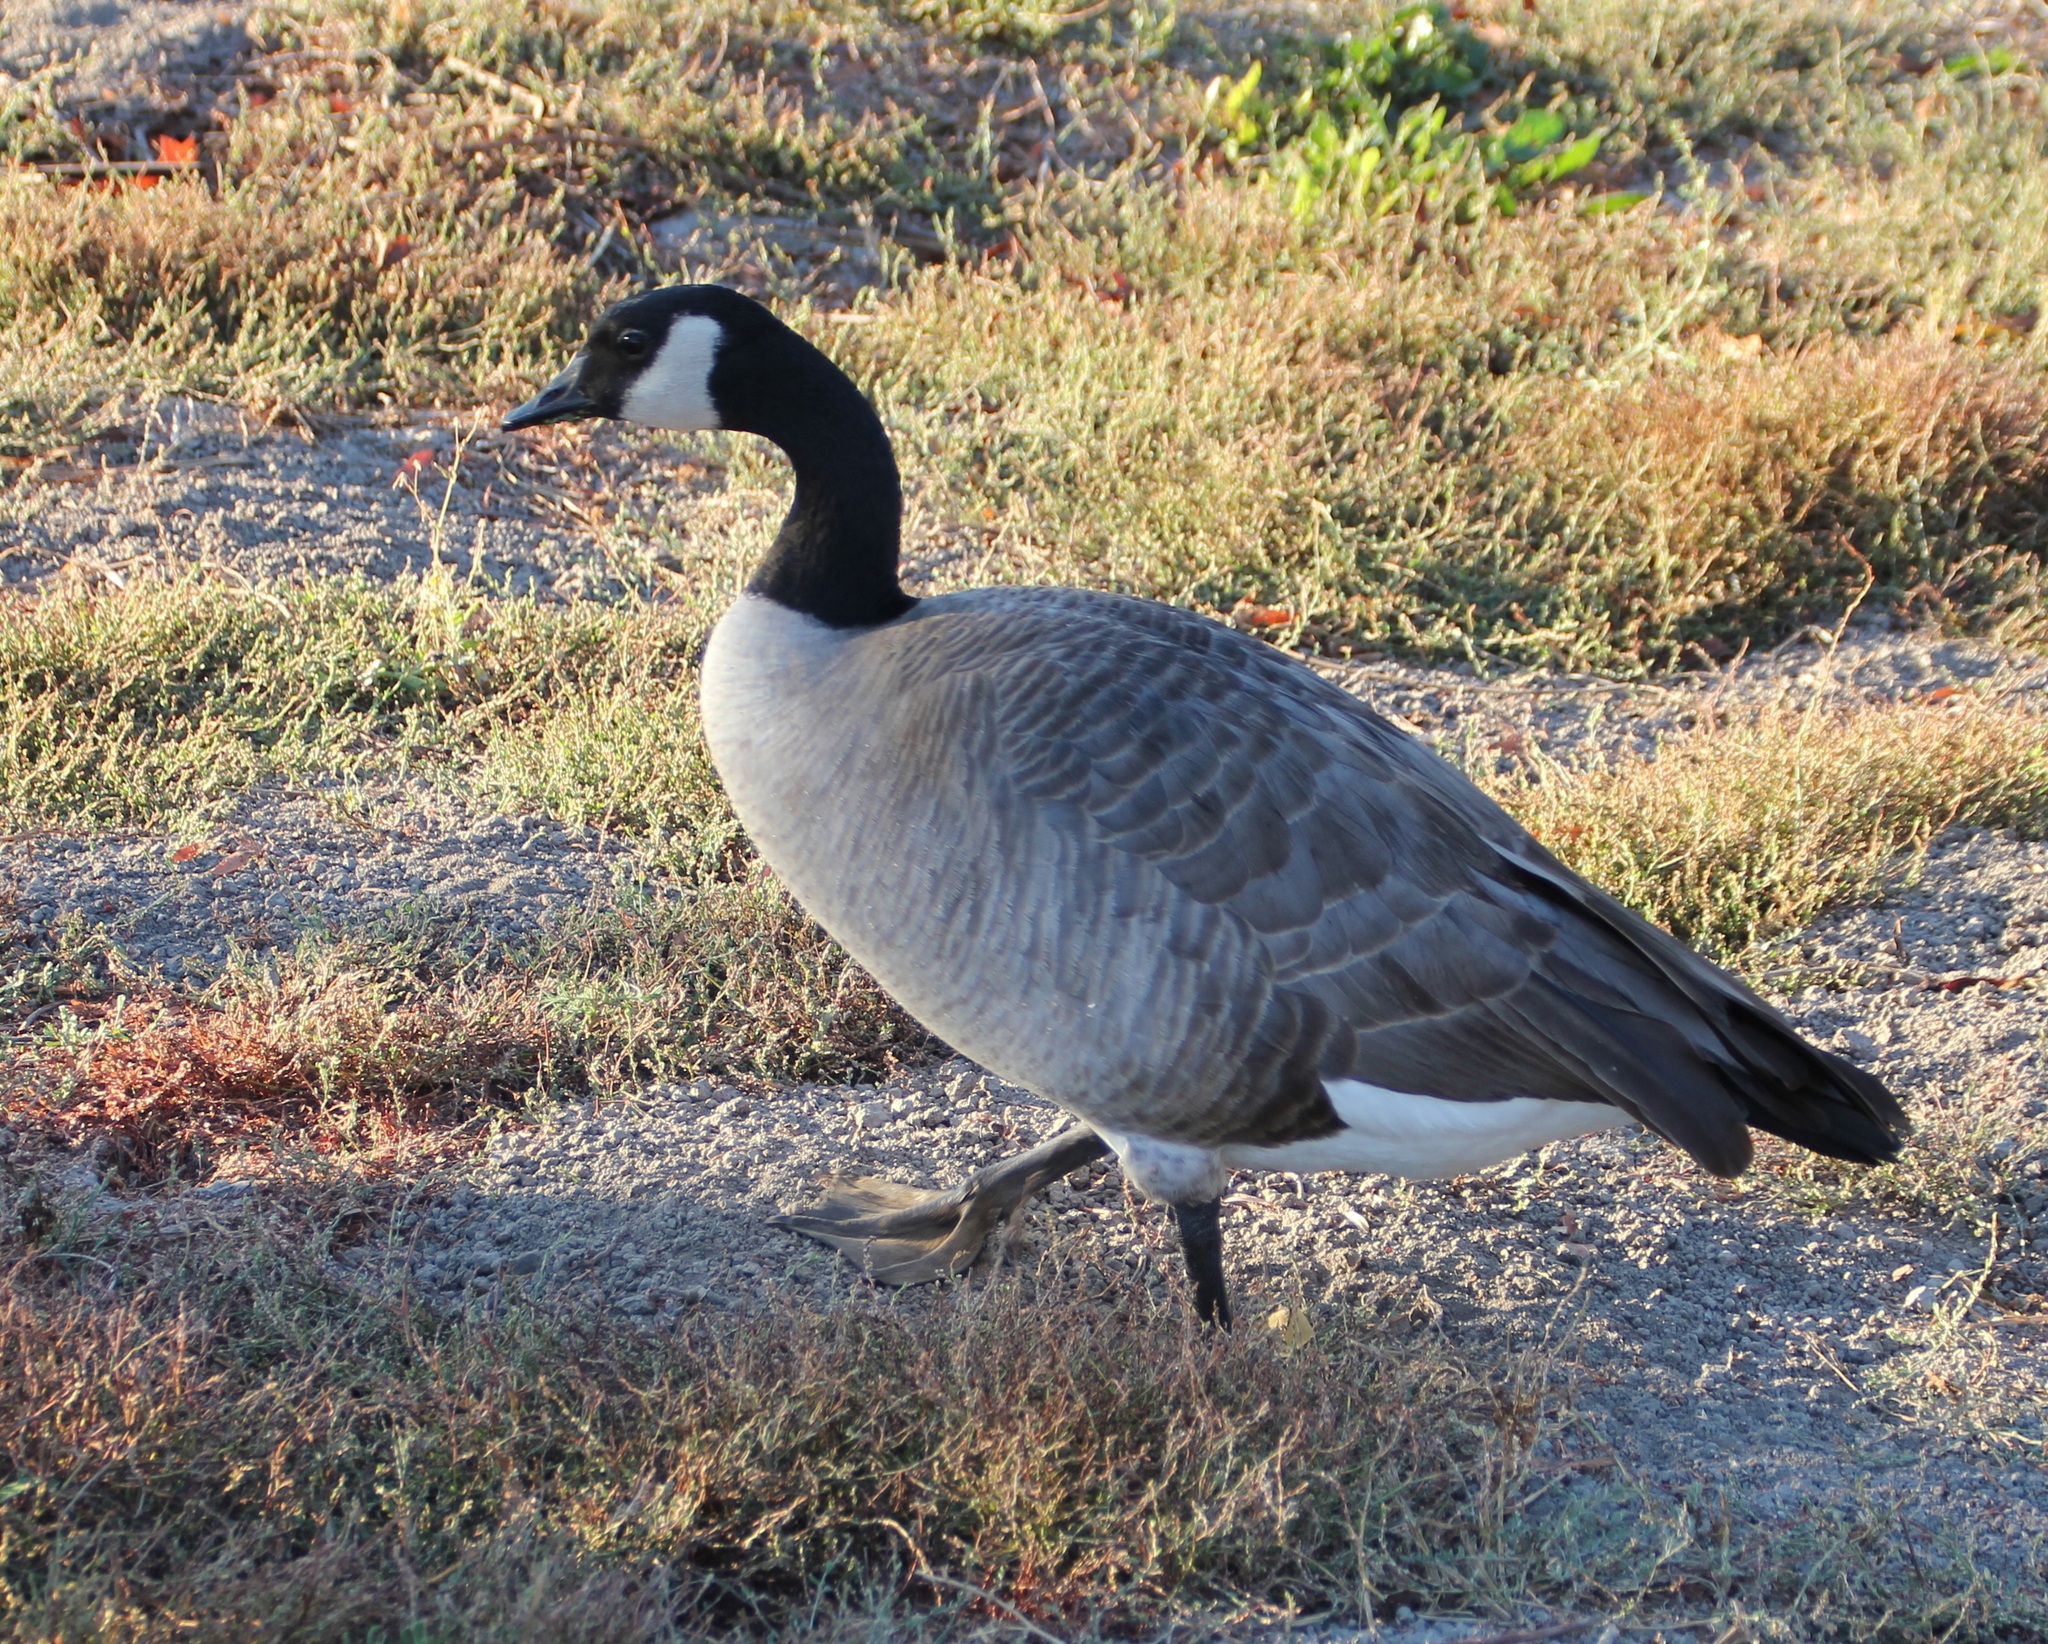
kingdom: Animalia
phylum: Chordata
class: Aves
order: Anseriformes
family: Anatidae
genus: Branta
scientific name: Branta canadensis
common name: Canada goose
